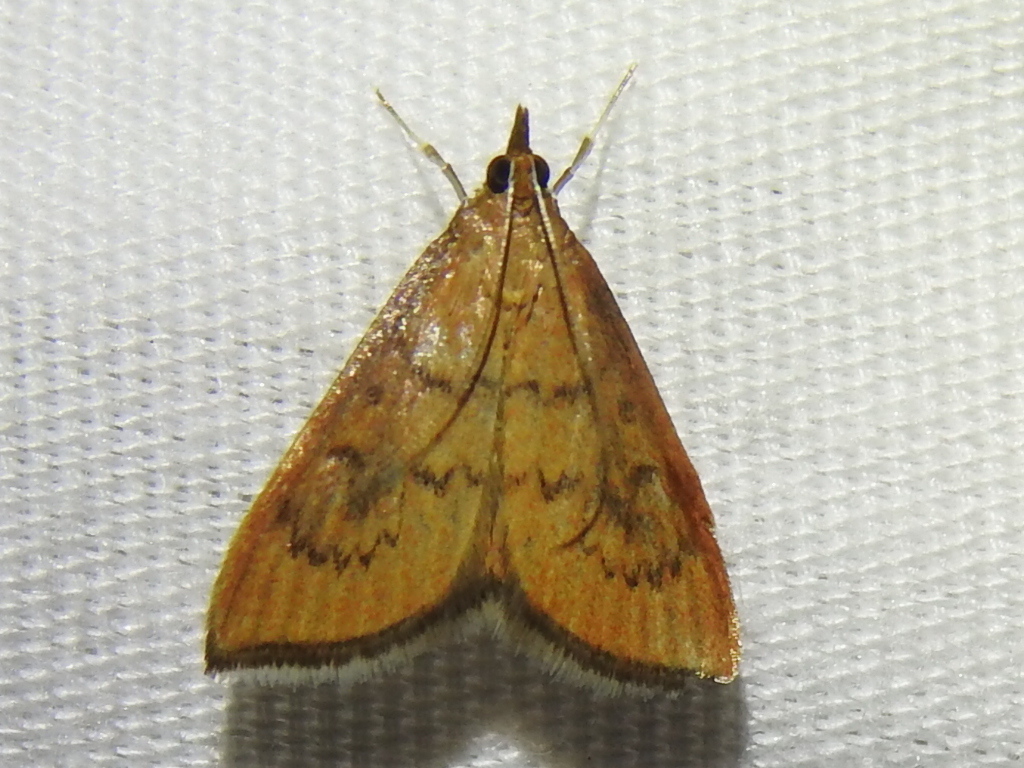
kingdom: Animalia
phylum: Arthropoda
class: Insecta
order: Lepidoptera
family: Crambidae
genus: Udea
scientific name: Udea rubigalis
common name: Celery leaftier moth
